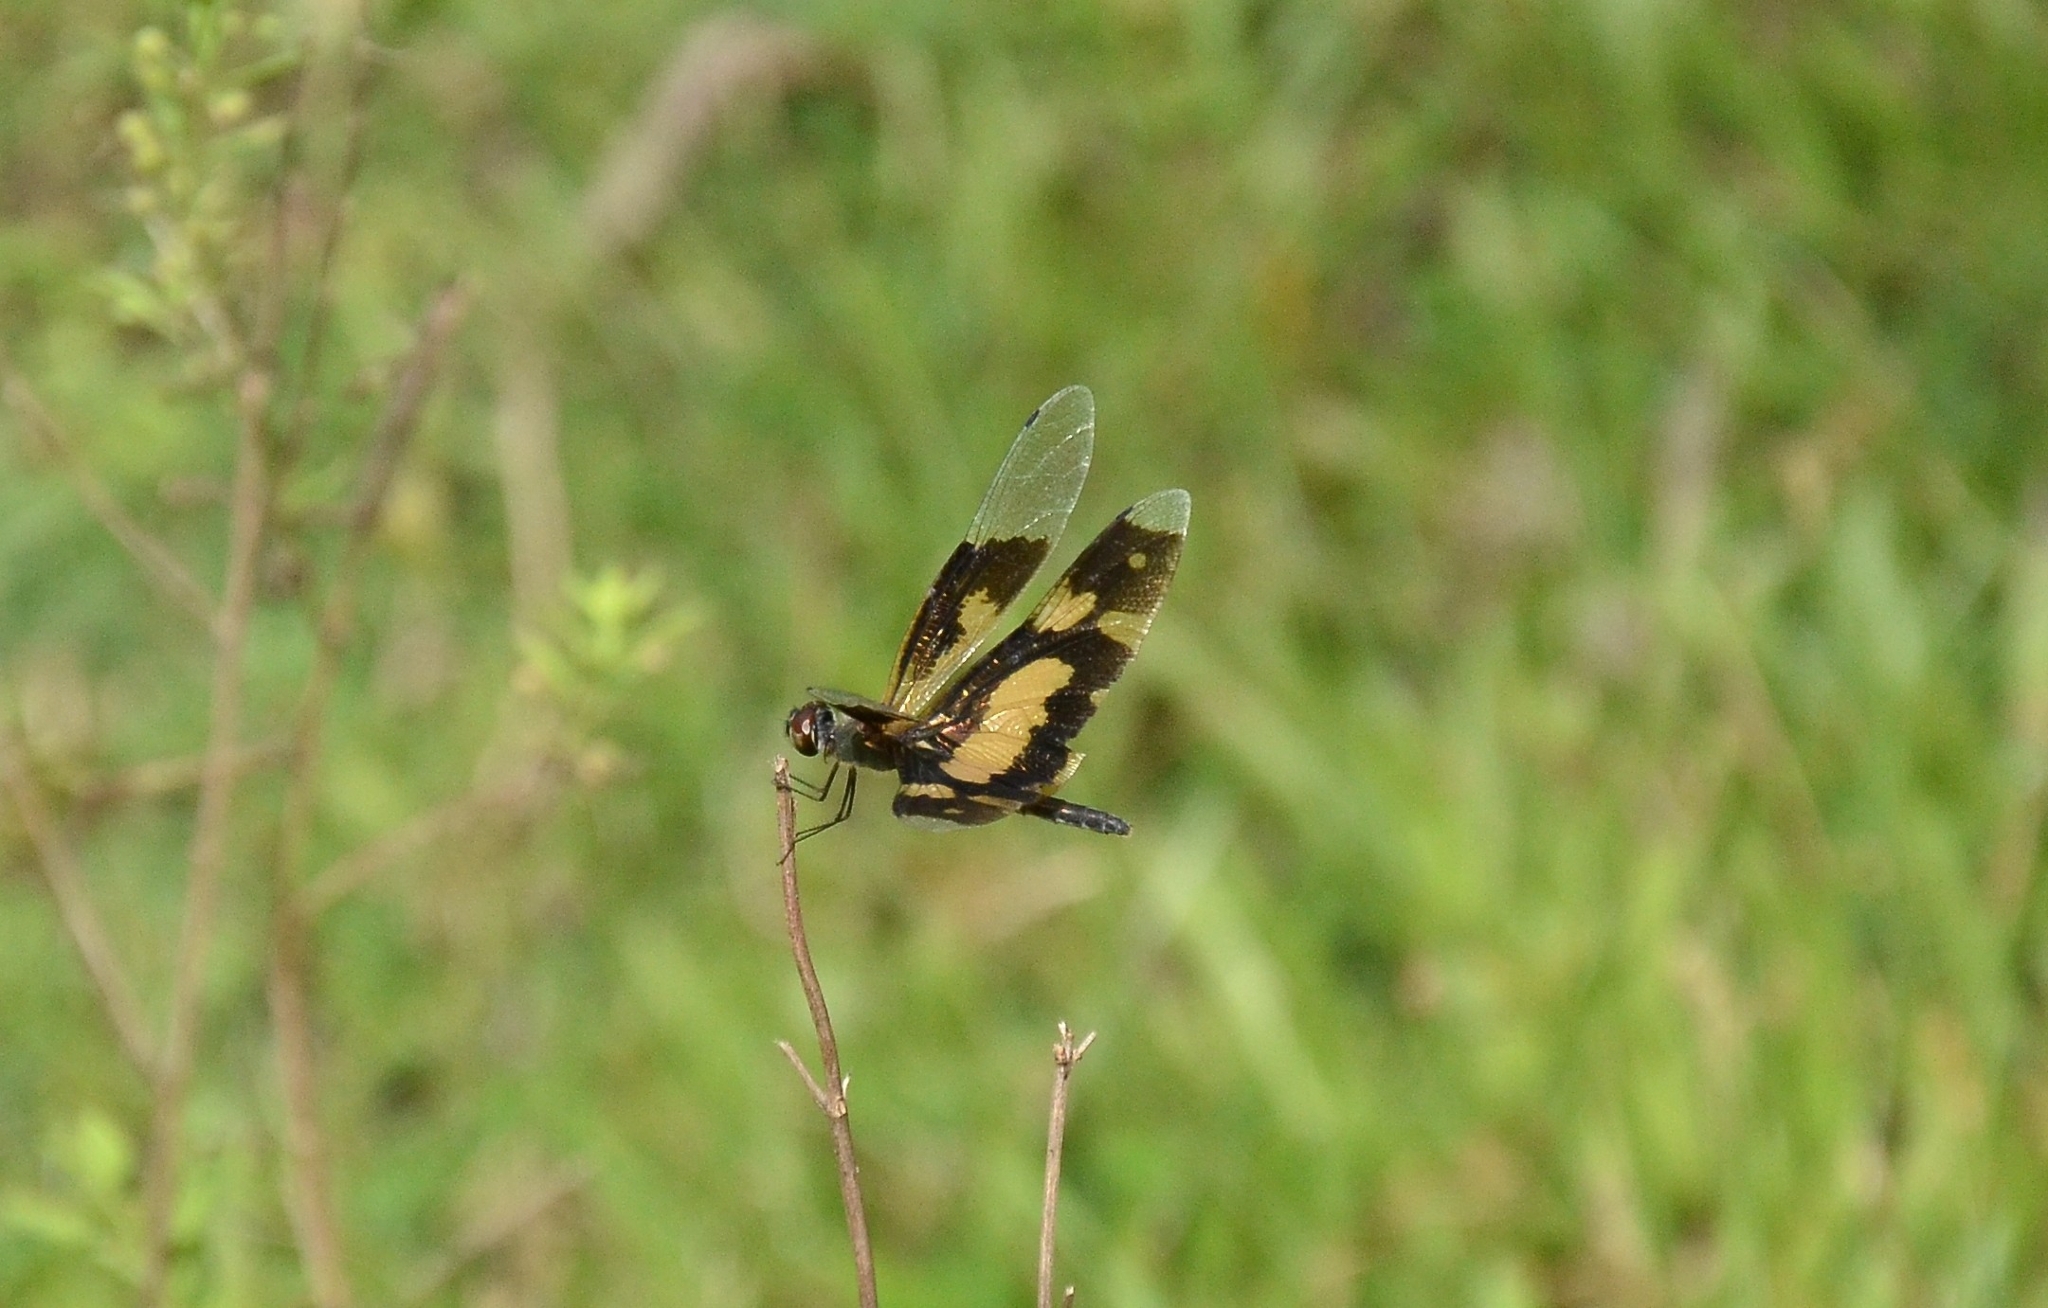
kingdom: Animalia
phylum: Arthropoda
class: Insecta
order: Odonata
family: Libellulidae
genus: Rhyothemis
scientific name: Rhyothemis variegata
